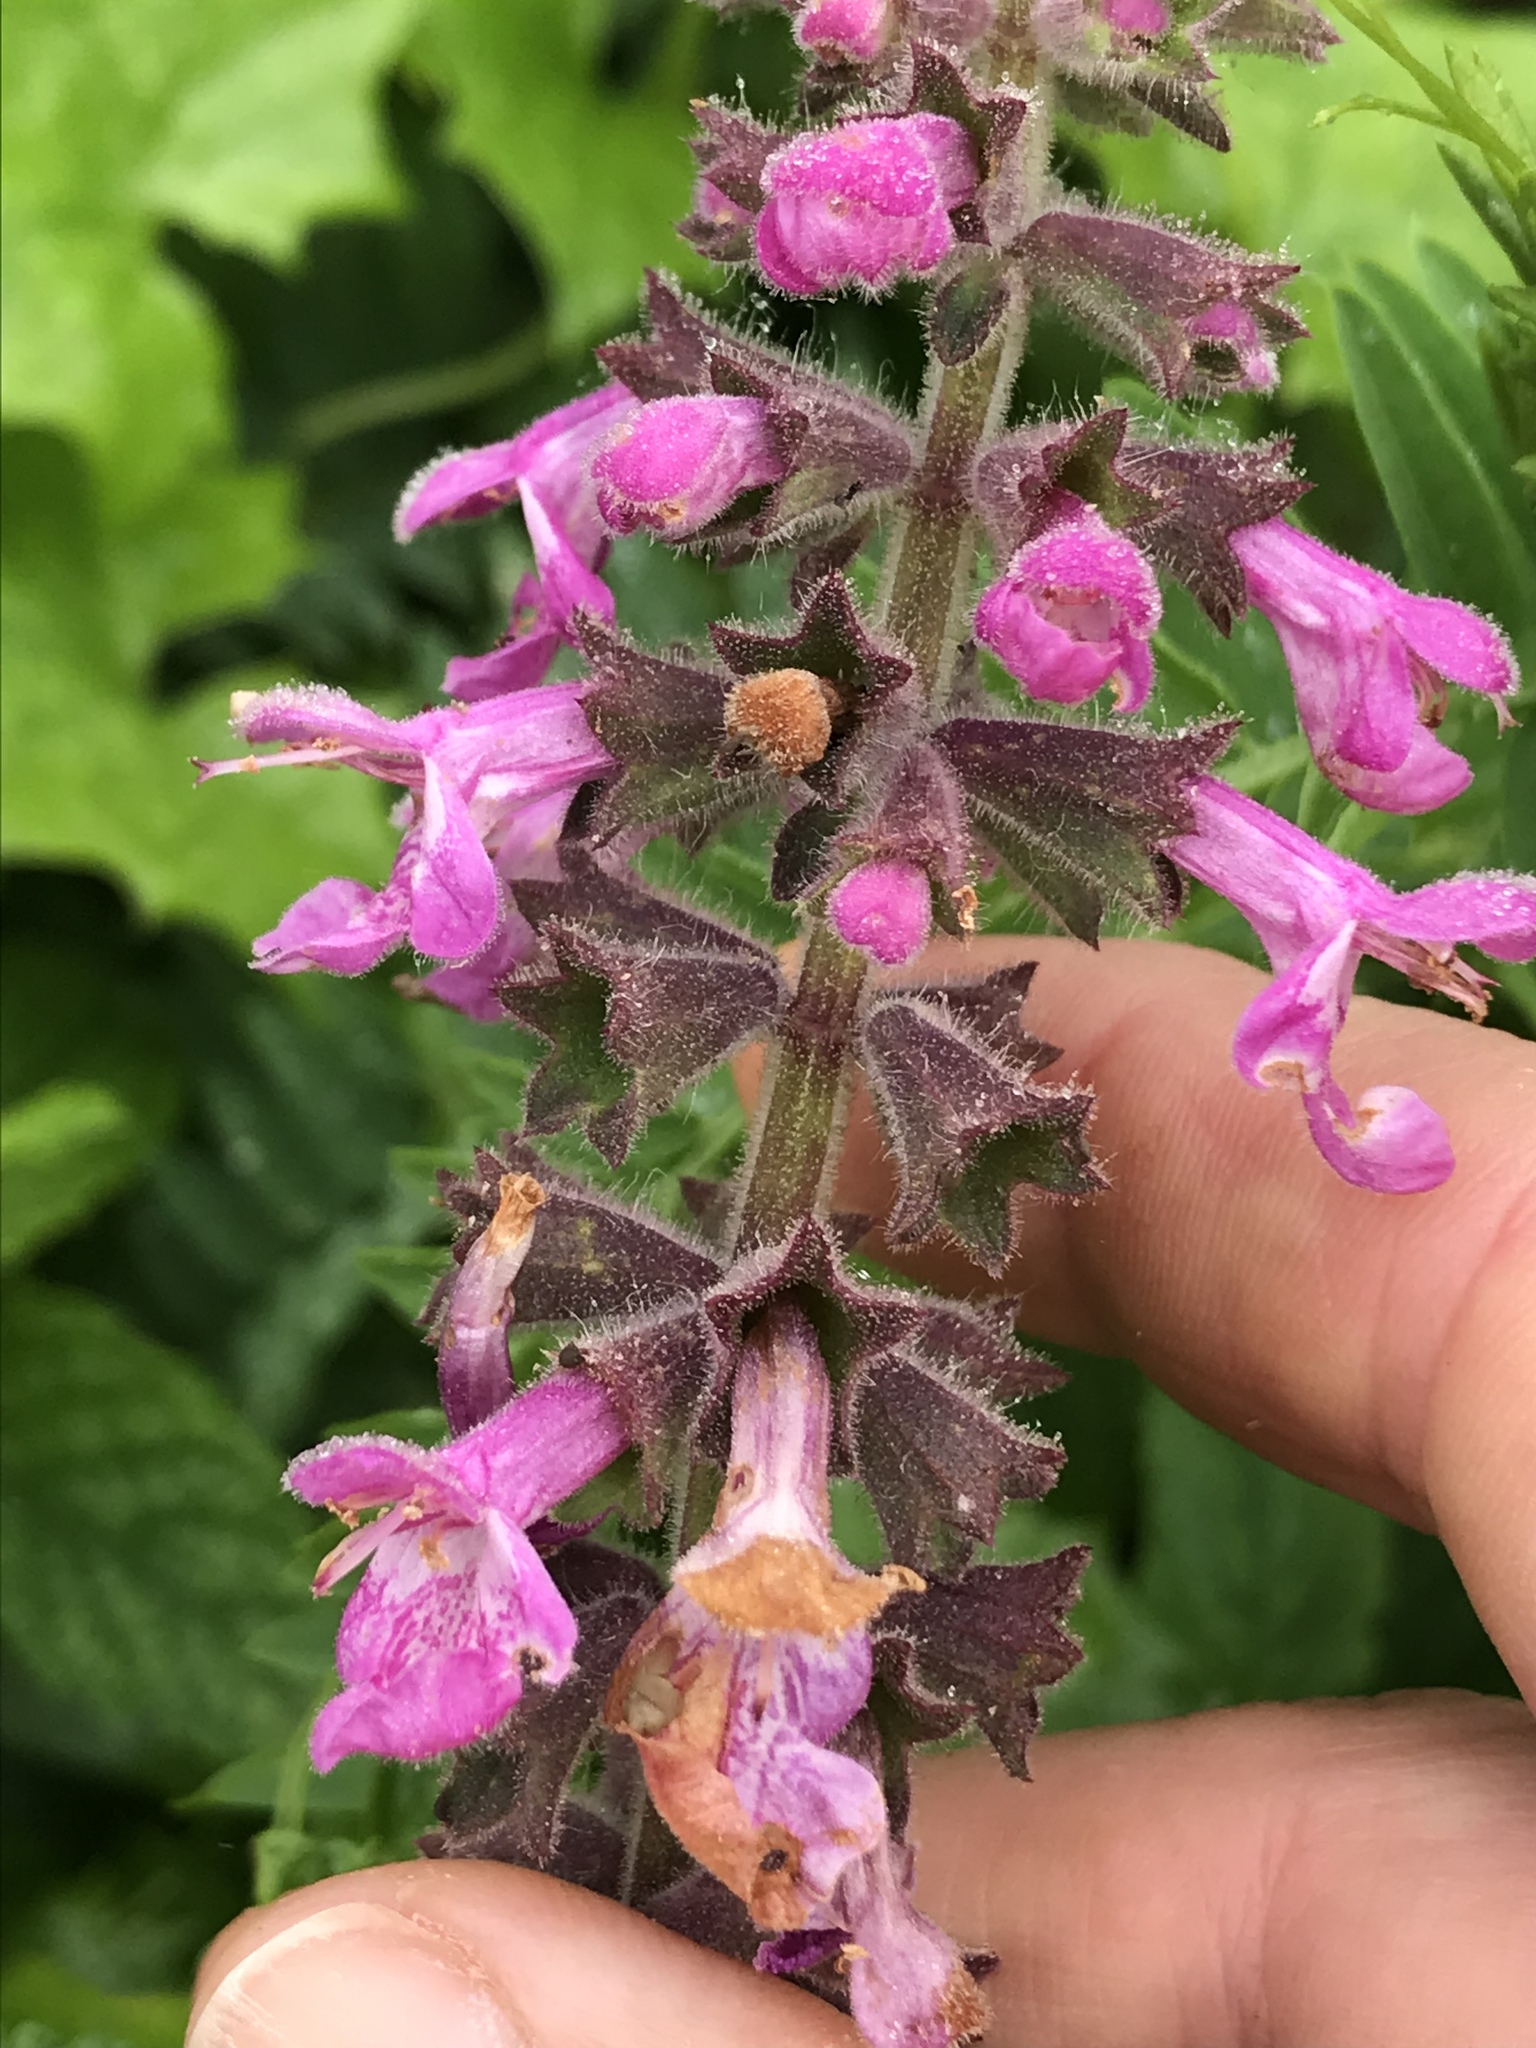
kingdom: Plantae
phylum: Tracheophyta
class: Magnoliopsida
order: Lamiales
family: Lamiaceae
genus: Stachys
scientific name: Stachys chamissonis
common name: Coastal hedge-nettle
